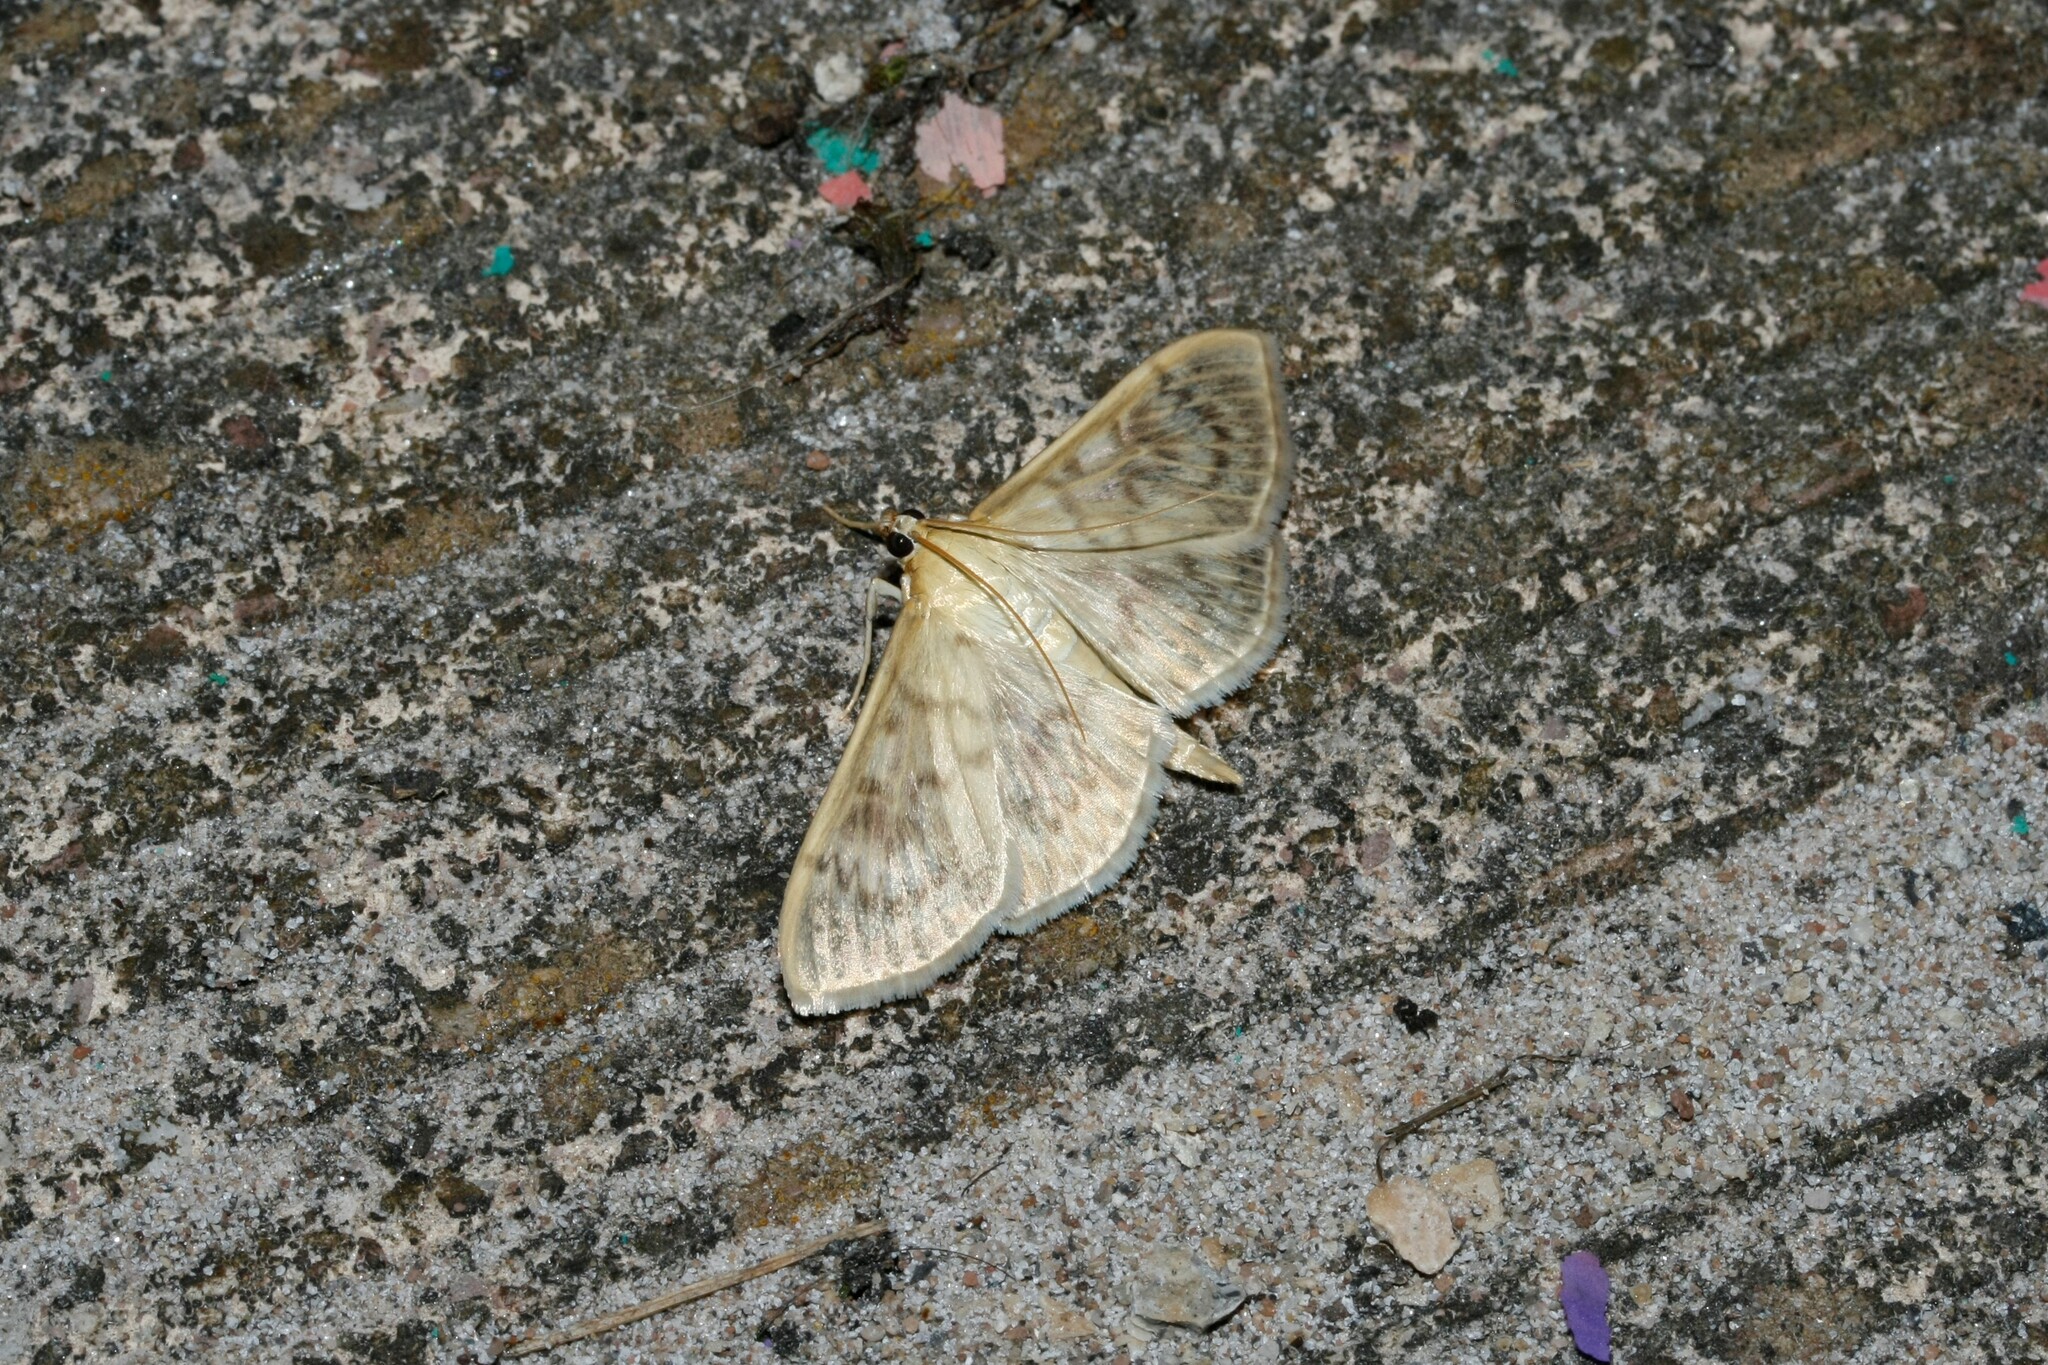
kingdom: Animalia
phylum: Arthropoda
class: Insecta
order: Lepidoptera
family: Crambidae
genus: Patania
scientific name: Patania ruralis
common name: Mother of pearl
